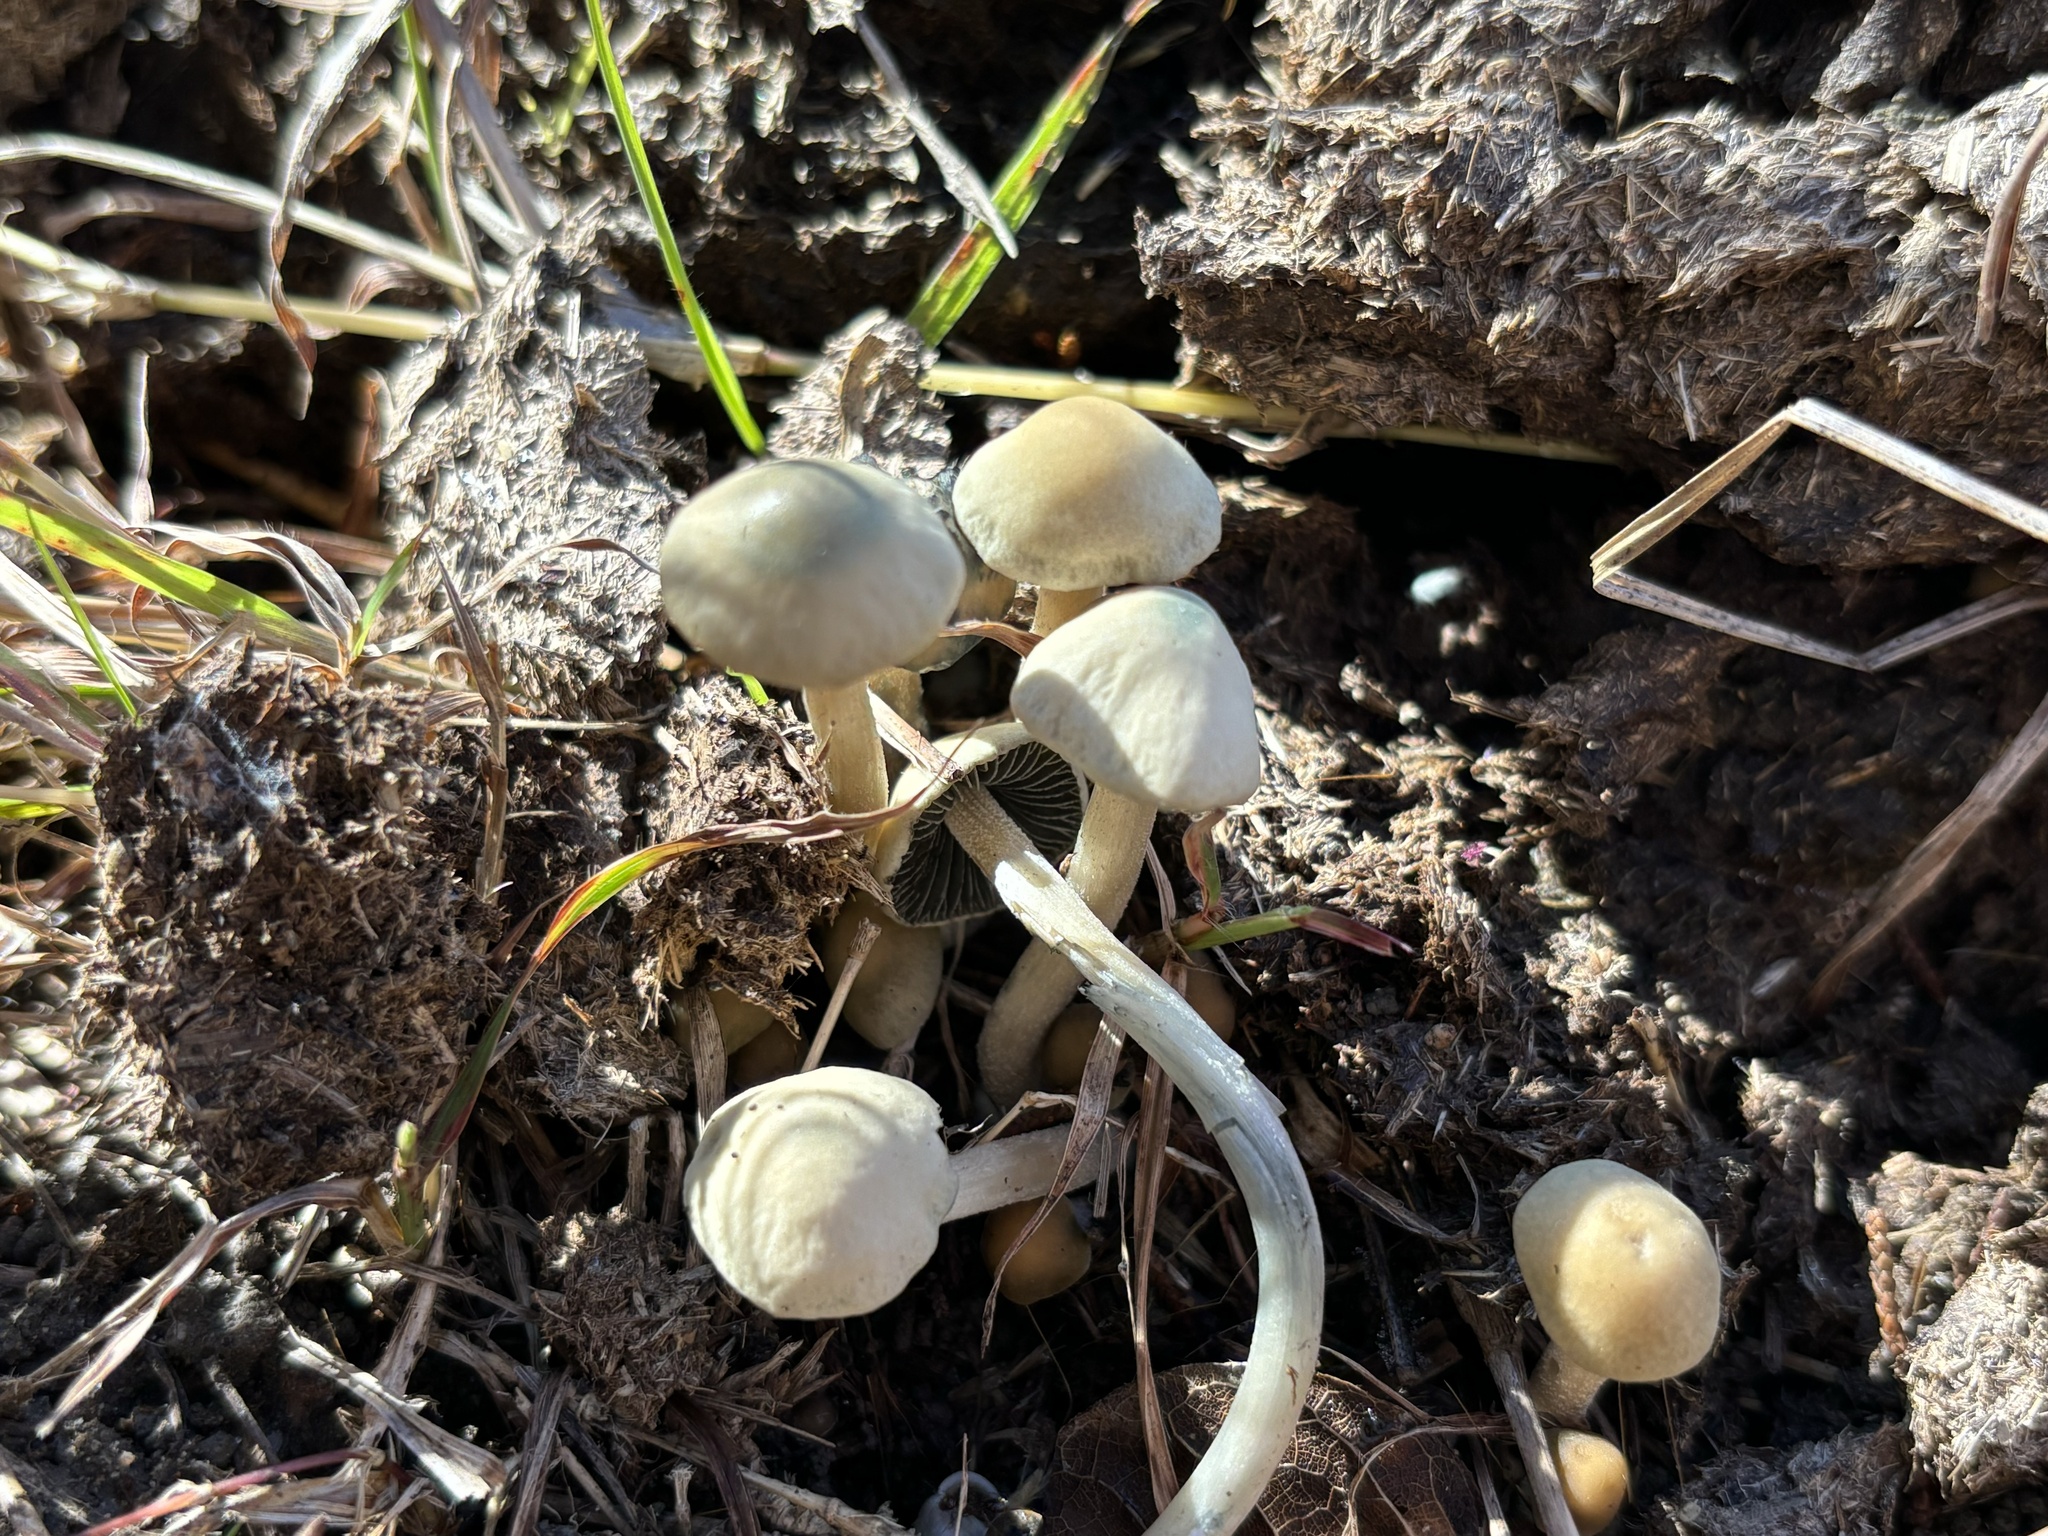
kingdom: Fungi
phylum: Basidiomycota
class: Agaricomycetes
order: Agaricales
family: Bolbitiaceae
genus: Panaeolus
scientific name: Panaeolus cyanescens
